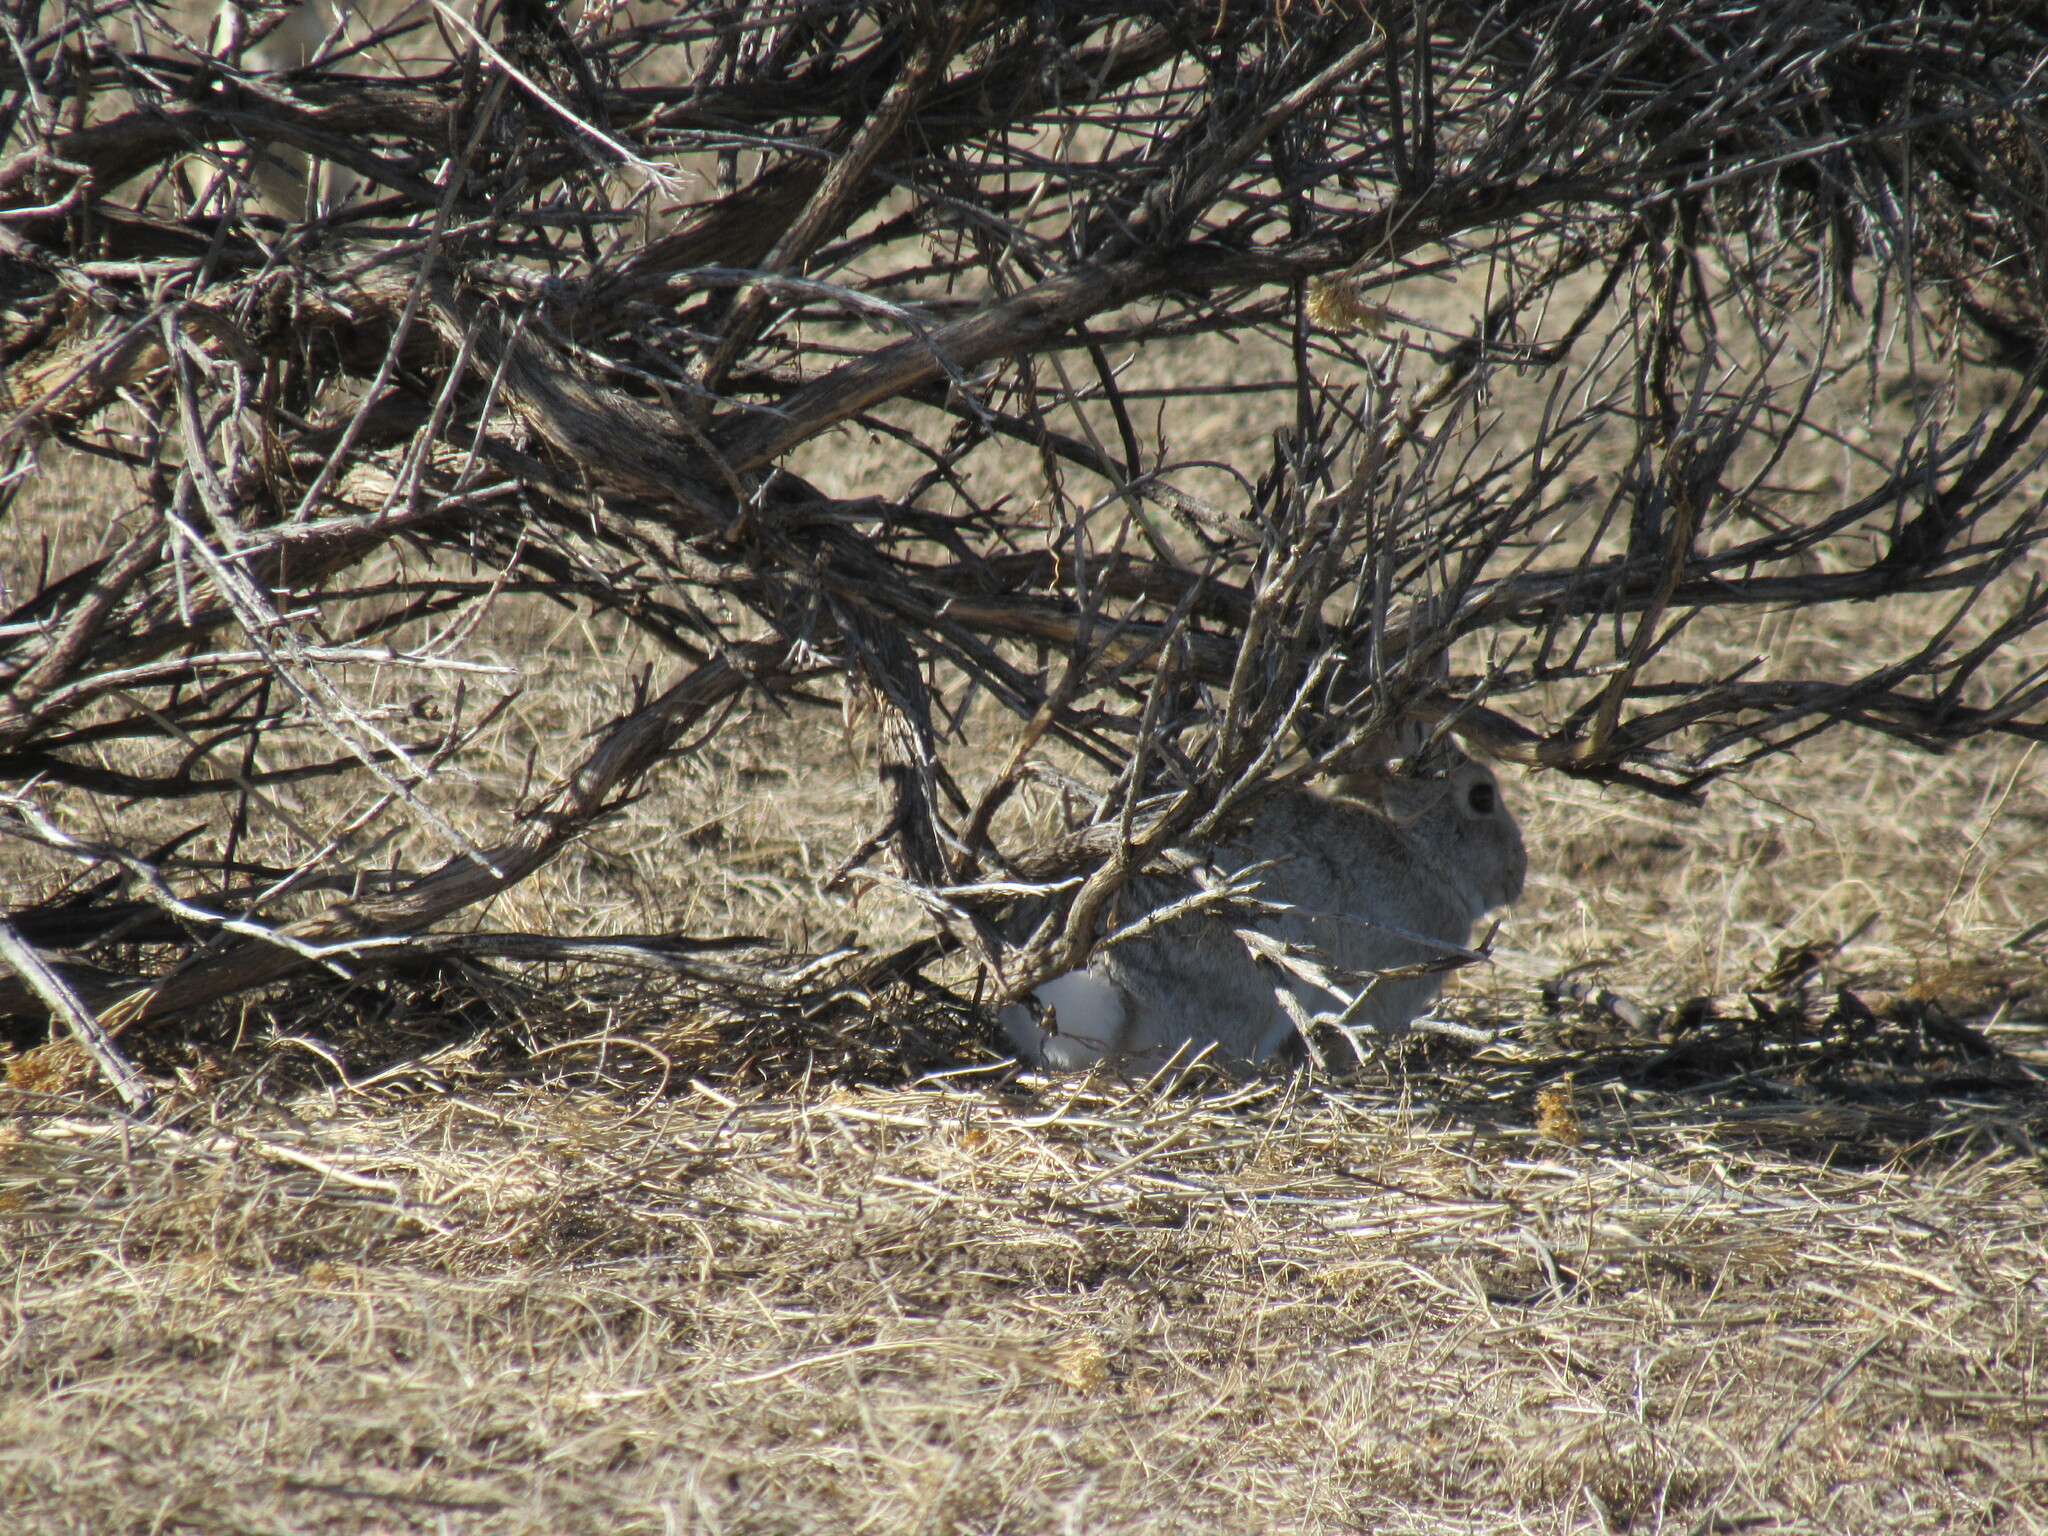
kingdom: Animalia
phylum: Chordata
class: Mammalia
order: Lagomorpha
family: Leporidae
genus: Sylvilagus
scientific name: Sylvilagus nuttallii
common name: Mountain cottontail
